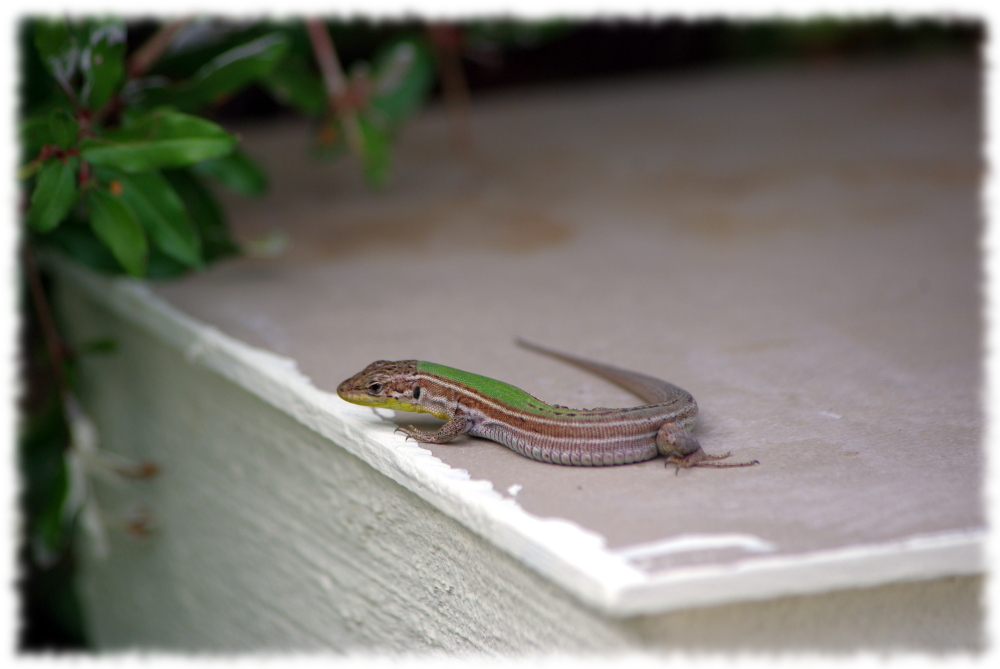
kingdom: Animalia
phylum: Chordata
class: Squamata
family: Lacertidae
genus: Podarcis
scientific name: Podarcis melisellensis
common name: Dalmatian wall lizard
